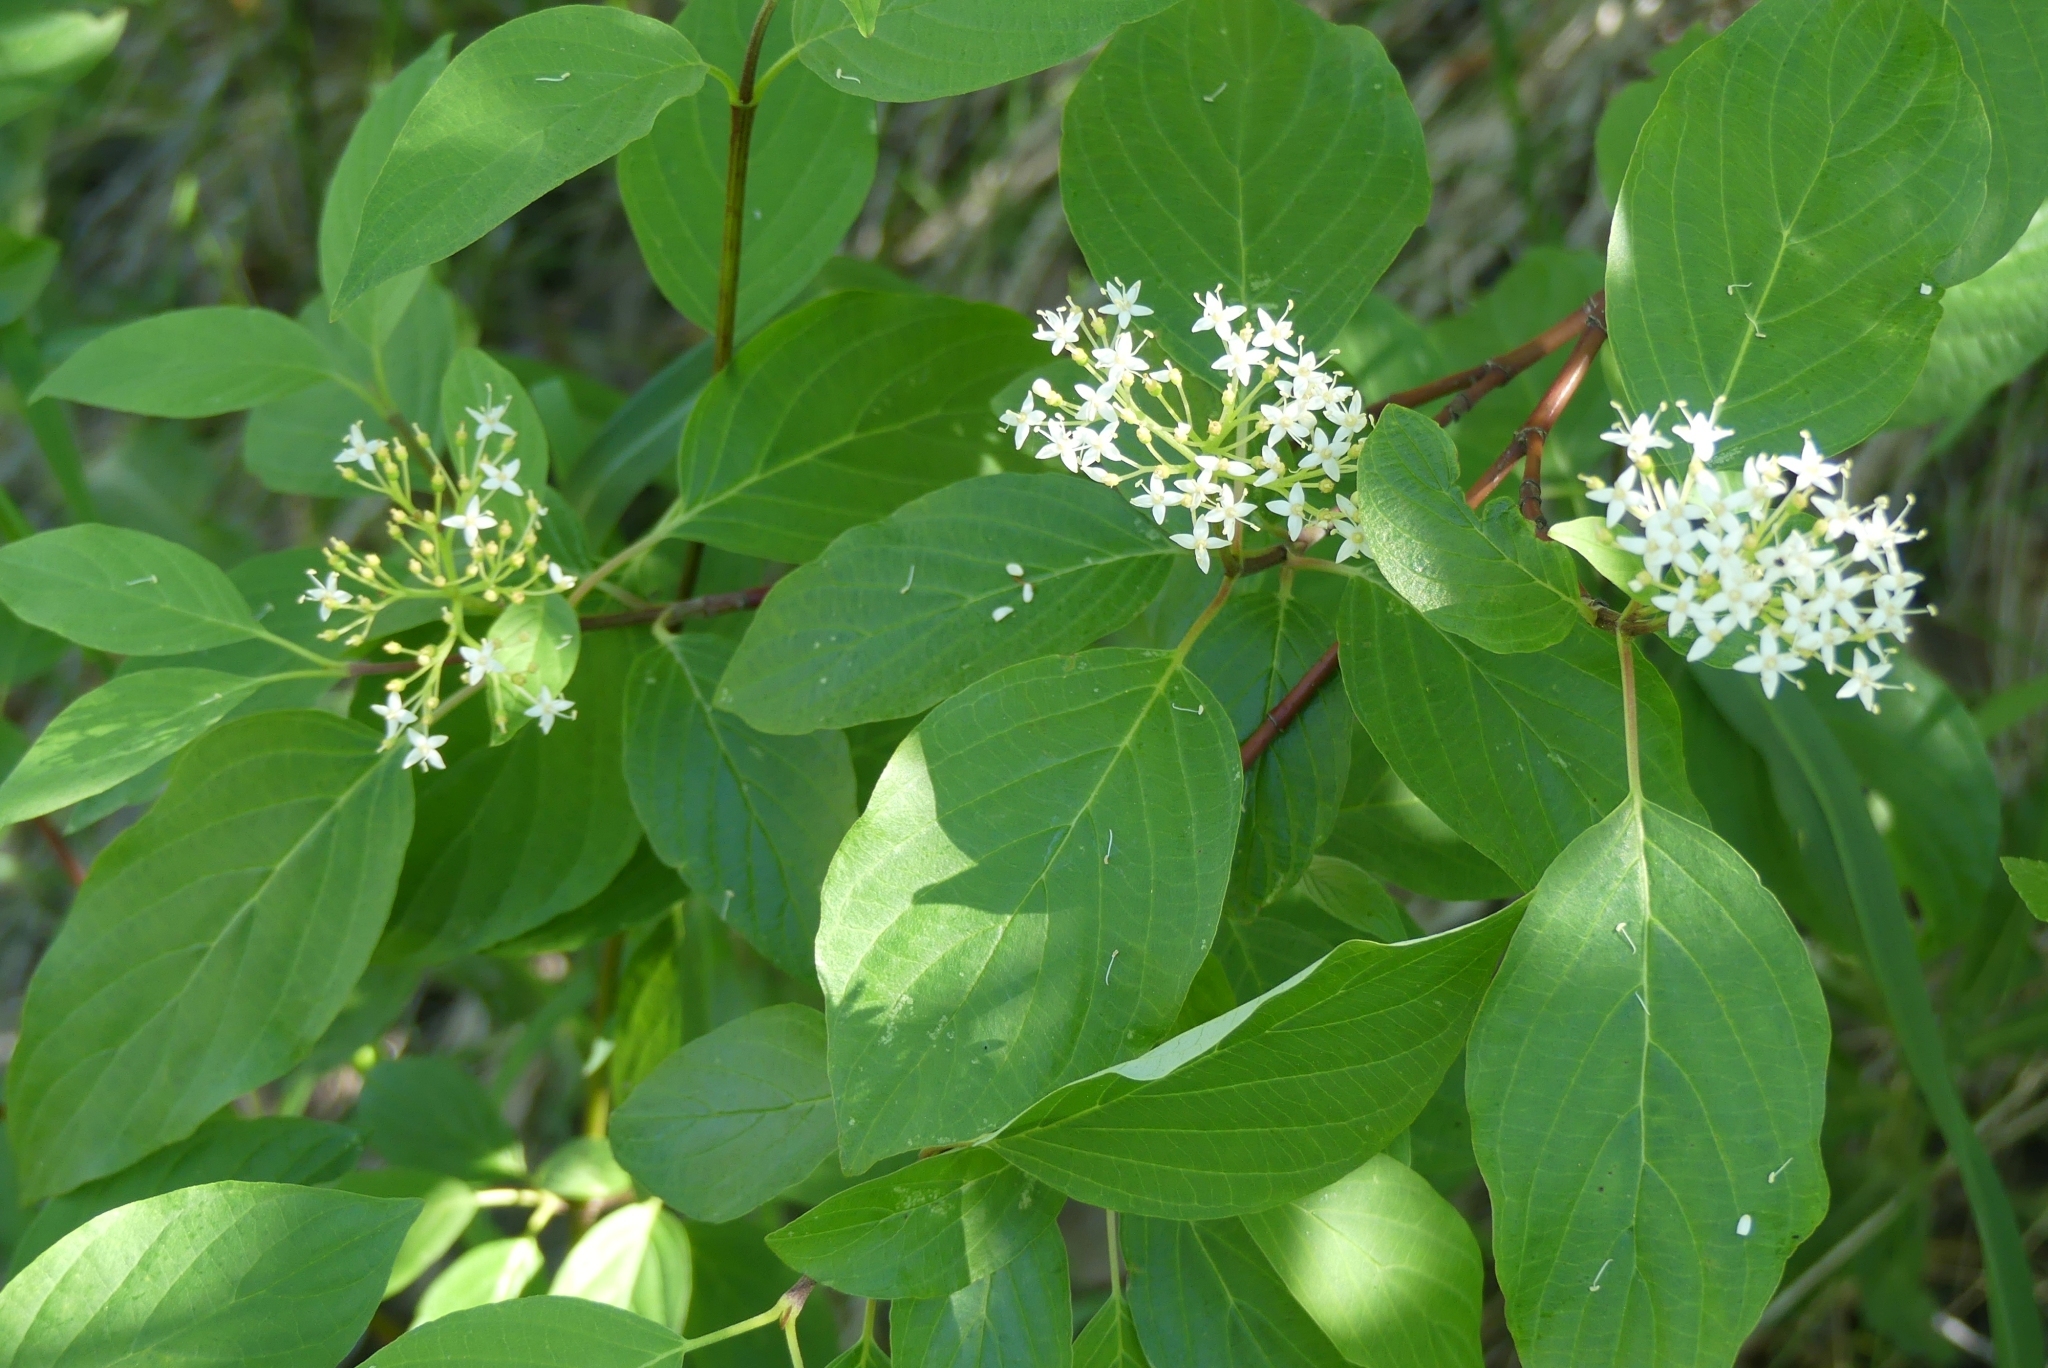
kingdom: Plantae
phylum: Tracheophyta
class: Magnoliopsida
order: Cornales
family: Cornaceae
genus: Cornus
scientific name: Cornus sericea
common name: Red-osier dogwood
